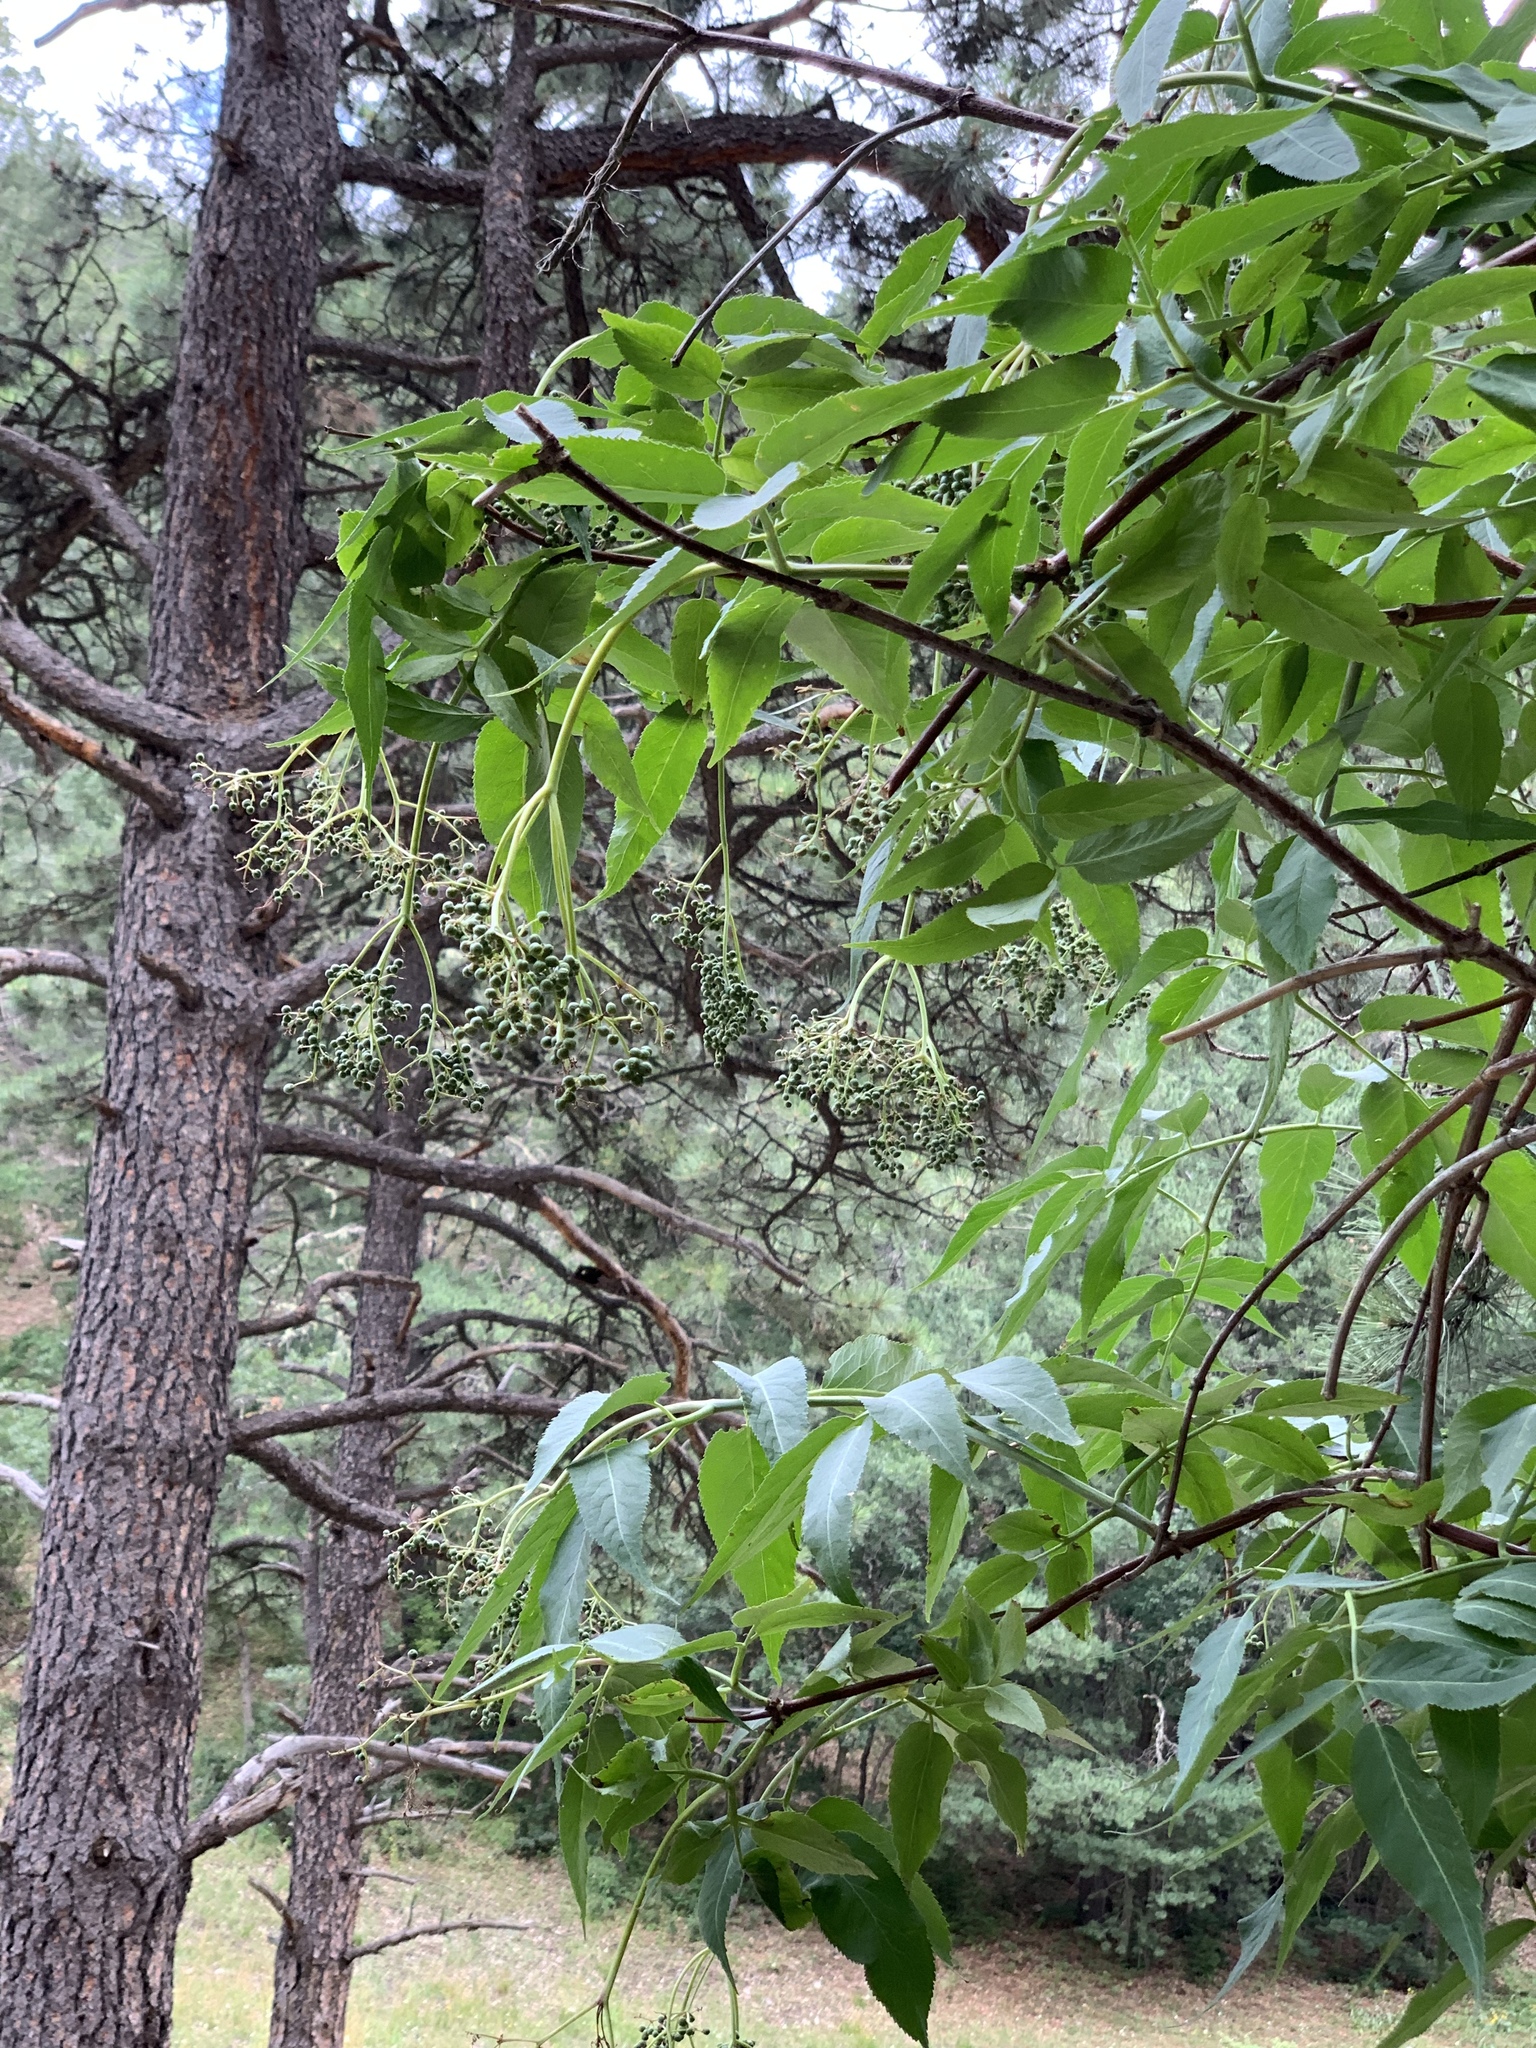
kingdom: Plantae
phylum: Tracheophyta
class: Magnoliopsida
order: Dipsacales
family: Viburnaceae
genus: Sambucus
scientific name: Sambucus cerulea
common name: Blue elder
